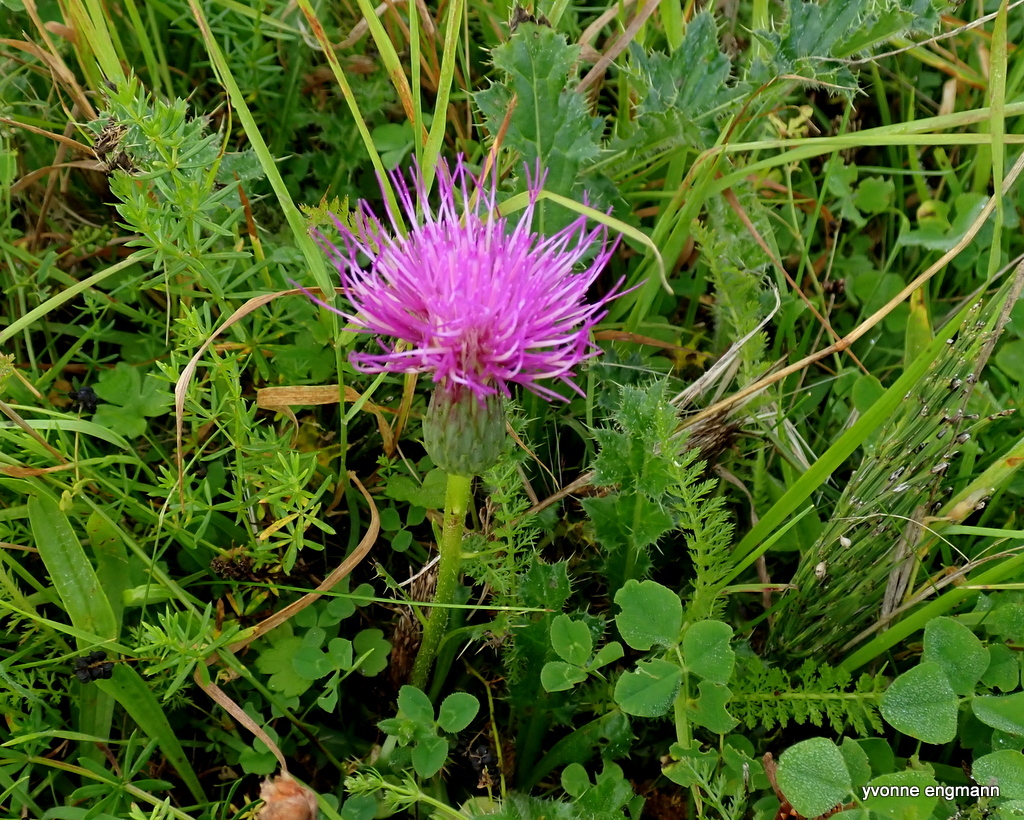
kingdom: Plantae
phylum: Tracheophyta
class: Magnoliopsida
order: Asterales
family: Asteraceae
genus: Cirsium
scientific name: Cirsium acaulon
